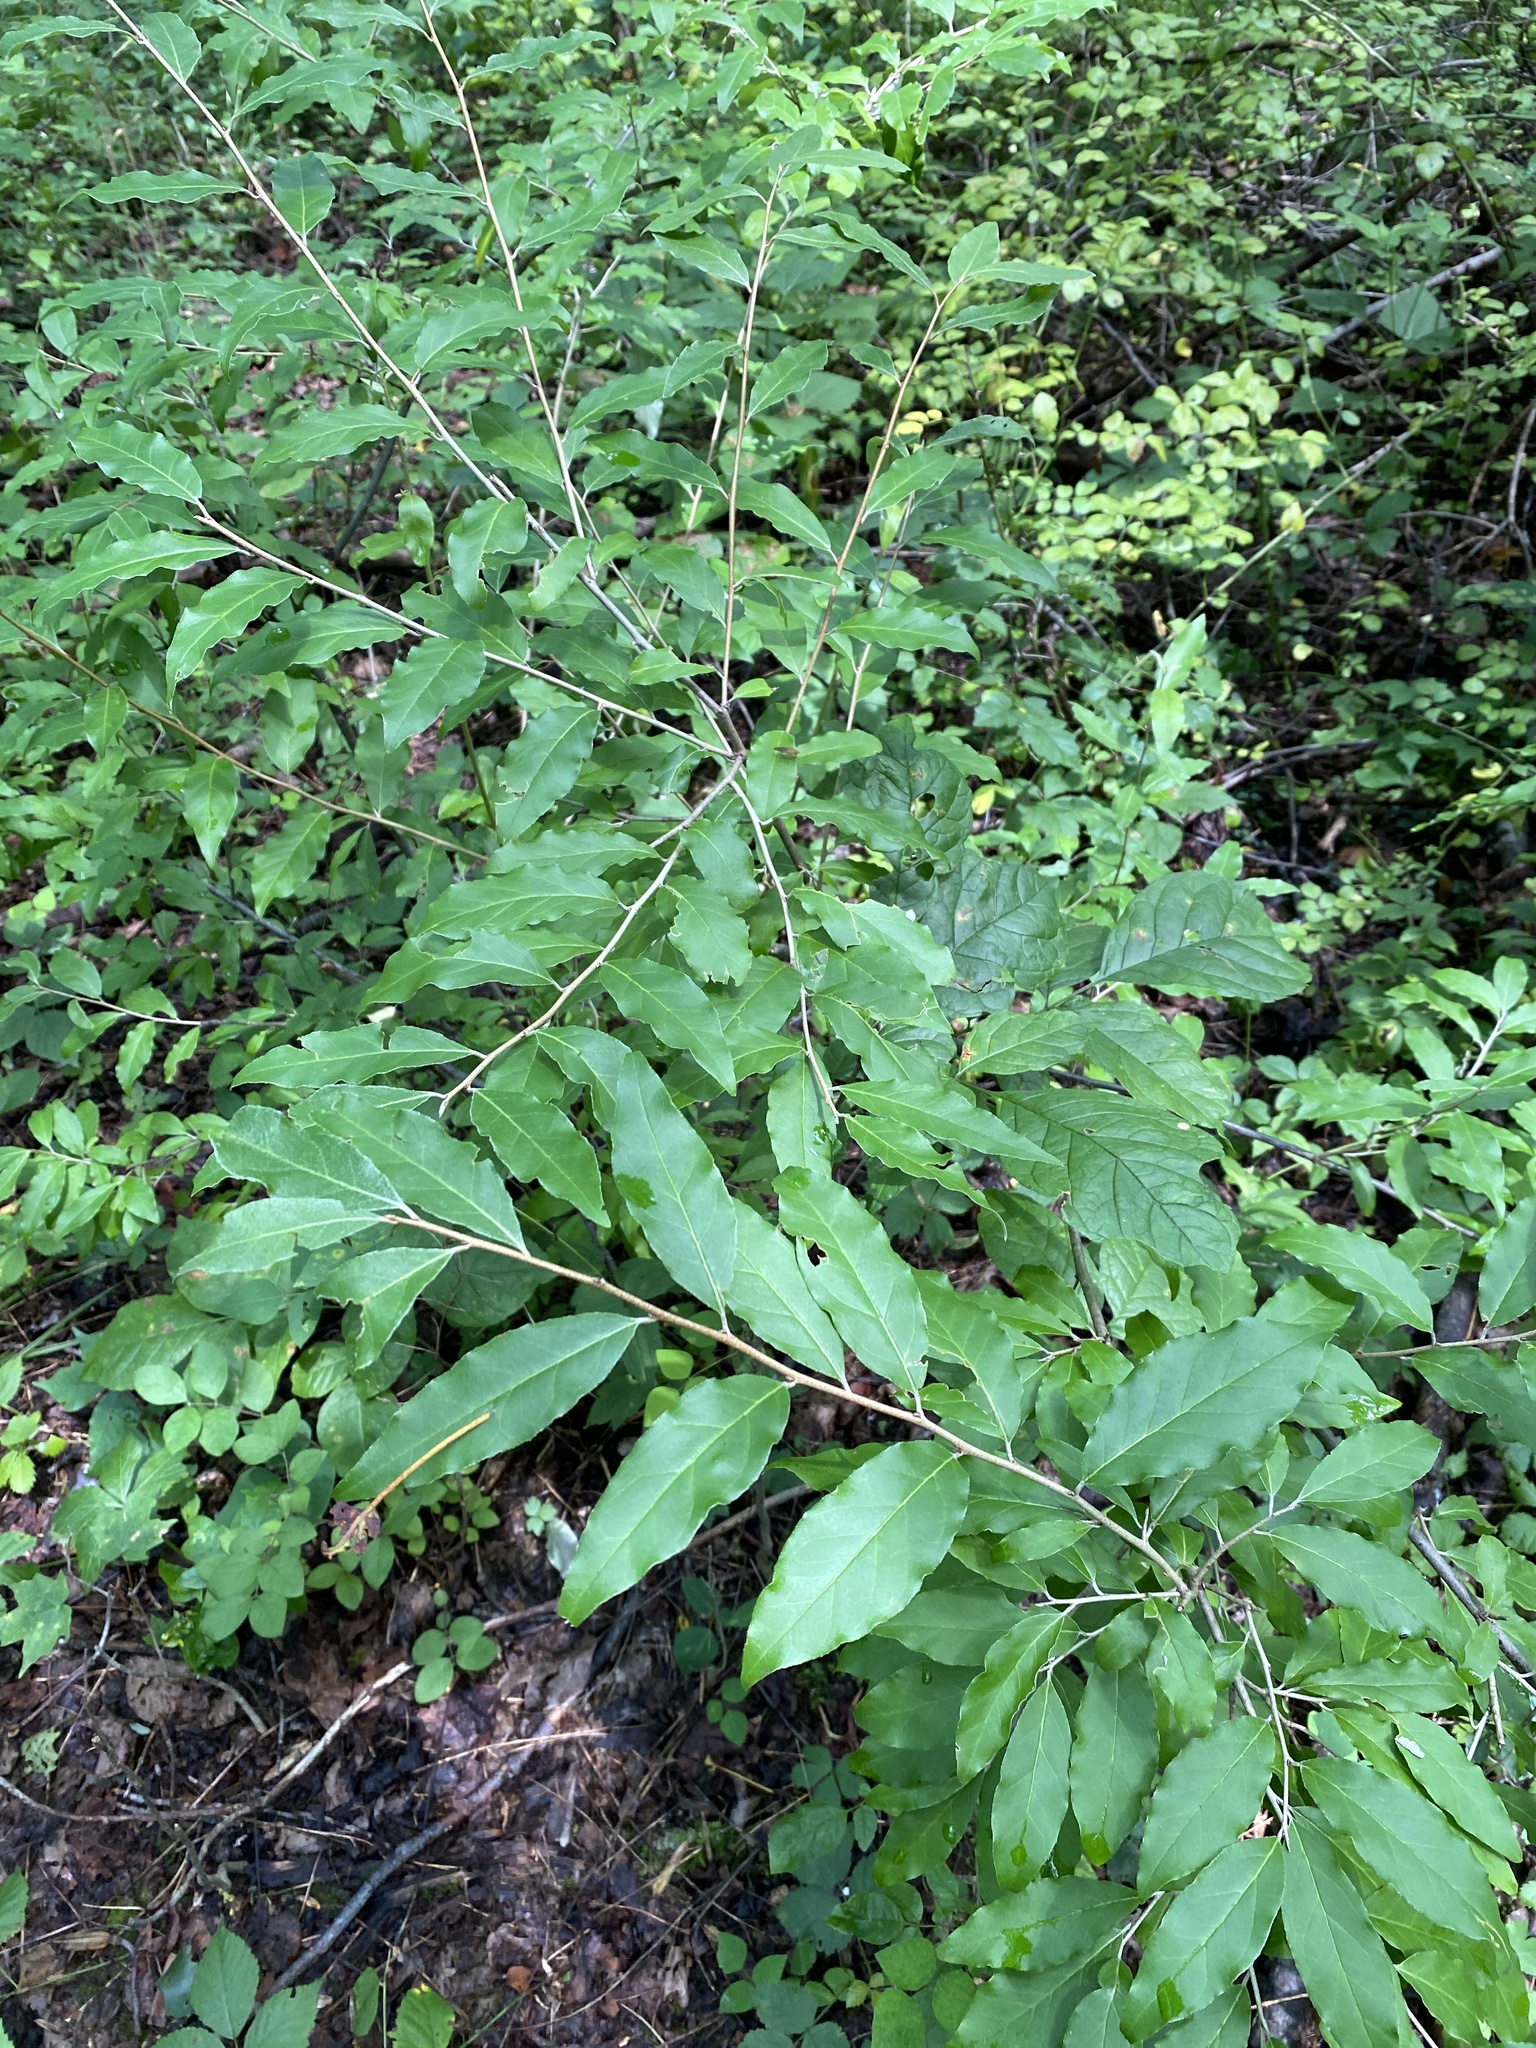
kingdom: Plantae
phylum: Tracheophyta
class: Magnoliopsida
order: Rosales
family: Elaeagnaceae
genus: Elaeagnus
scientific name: Elaeagnus umbellata
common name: Autumn olive
